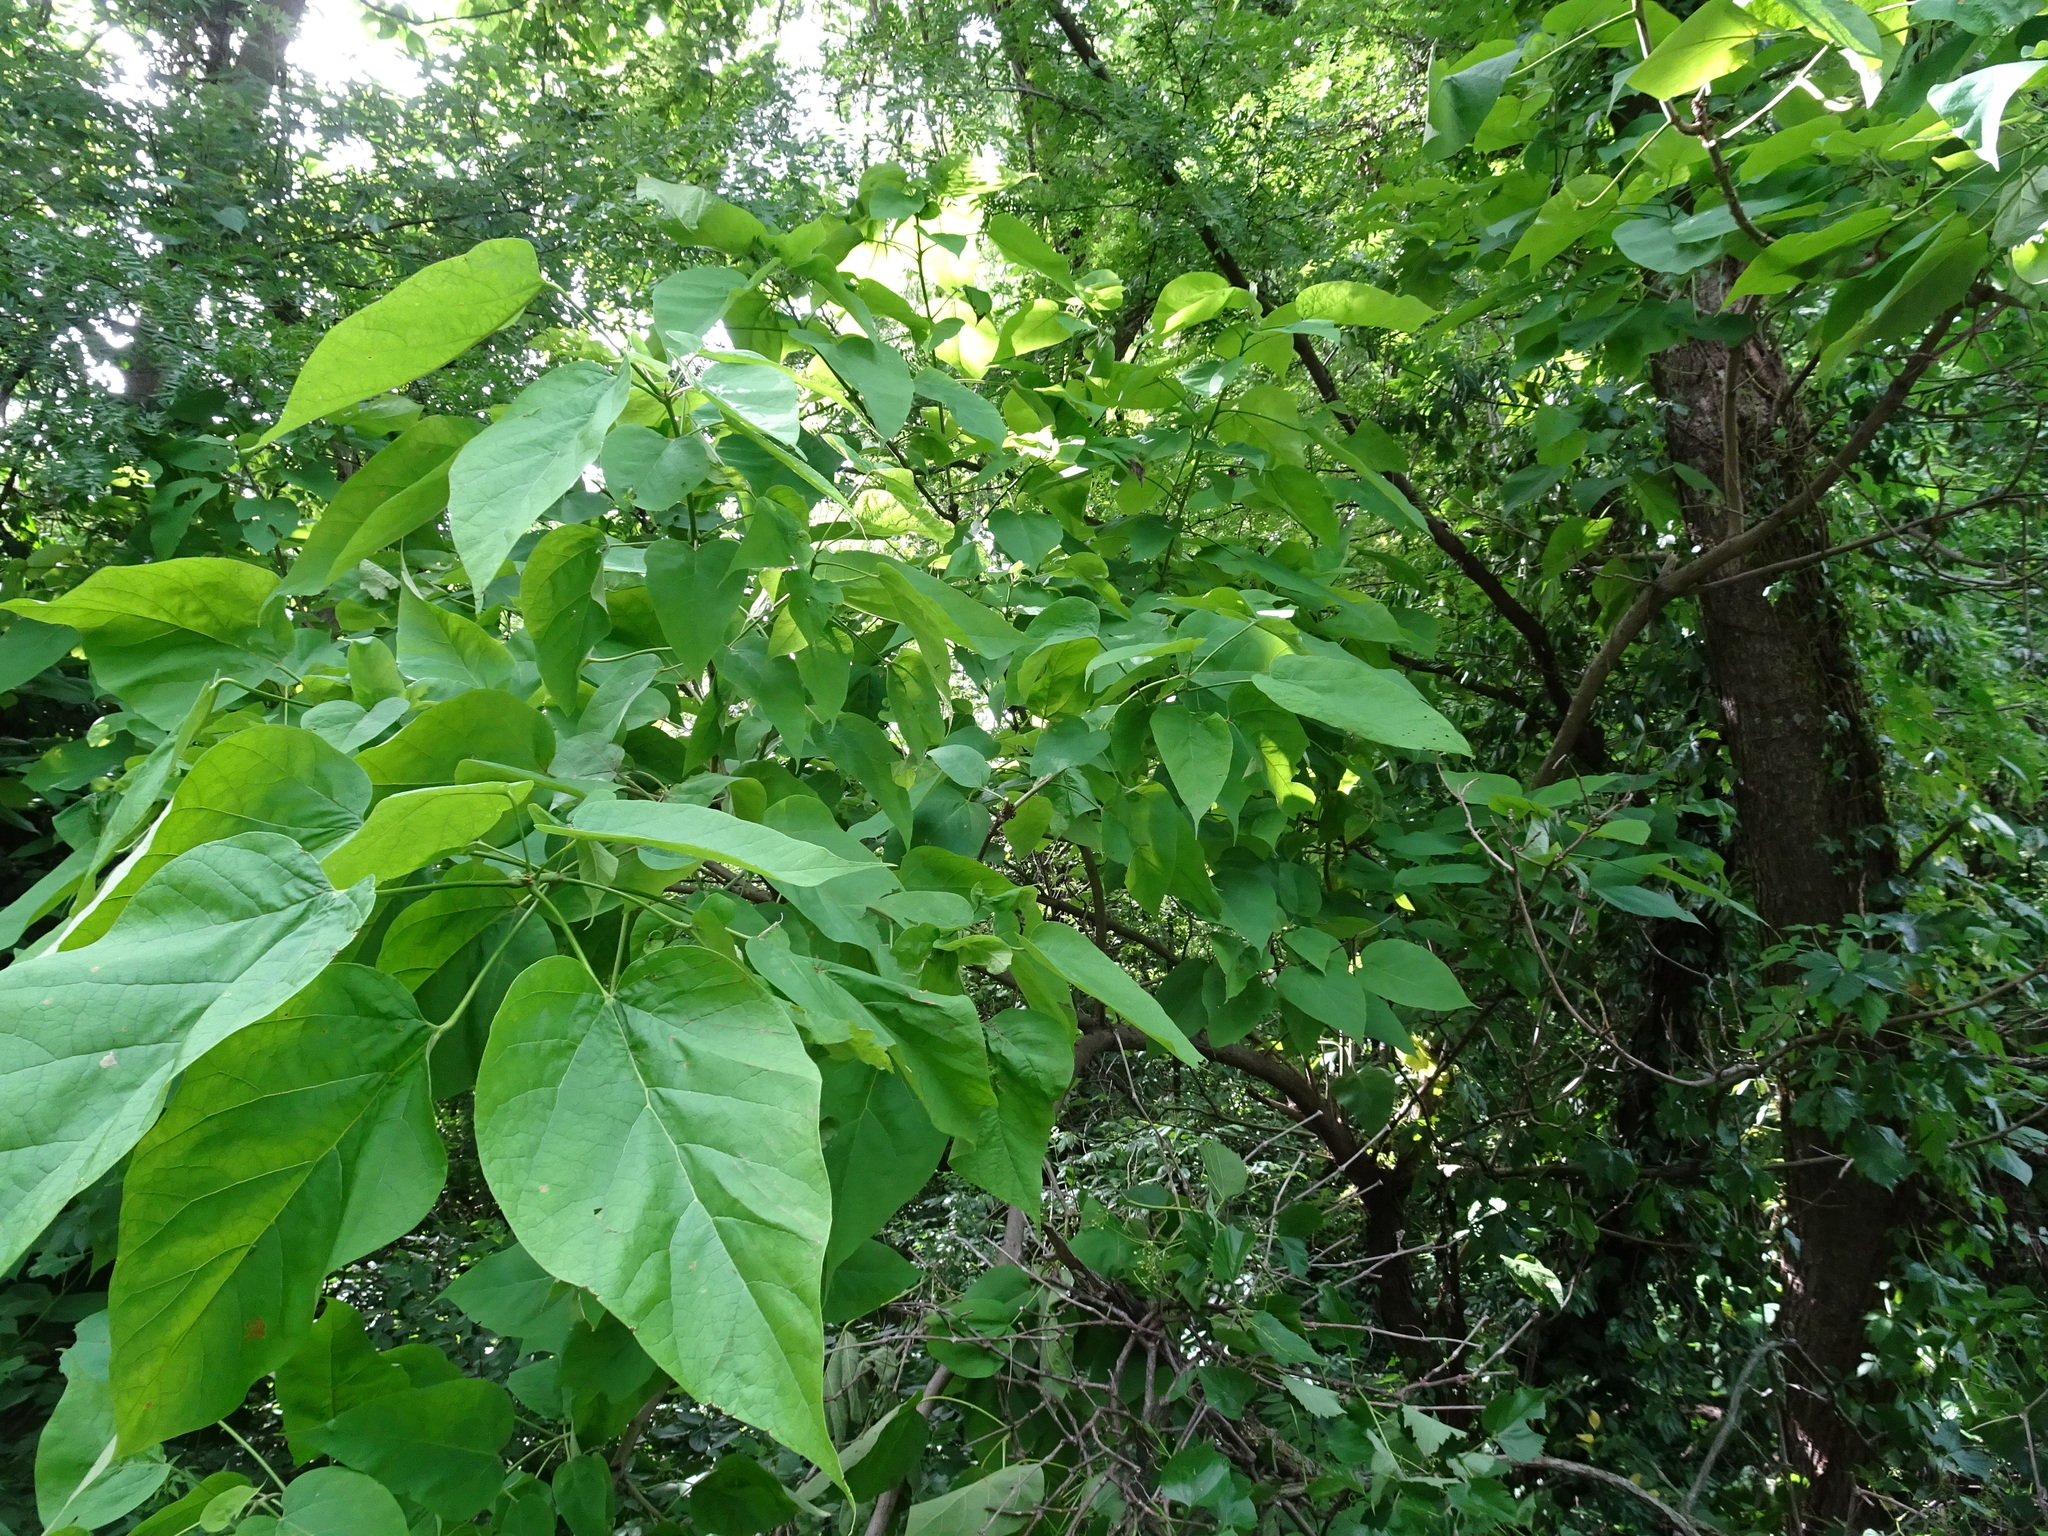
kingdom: Plantae
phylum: Tracheophyta
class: Magnoliopsida
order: Lamiales
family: Bignoniaceae
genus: Catalpa
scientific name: Catalpa speciosa
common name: Northern catalpa
